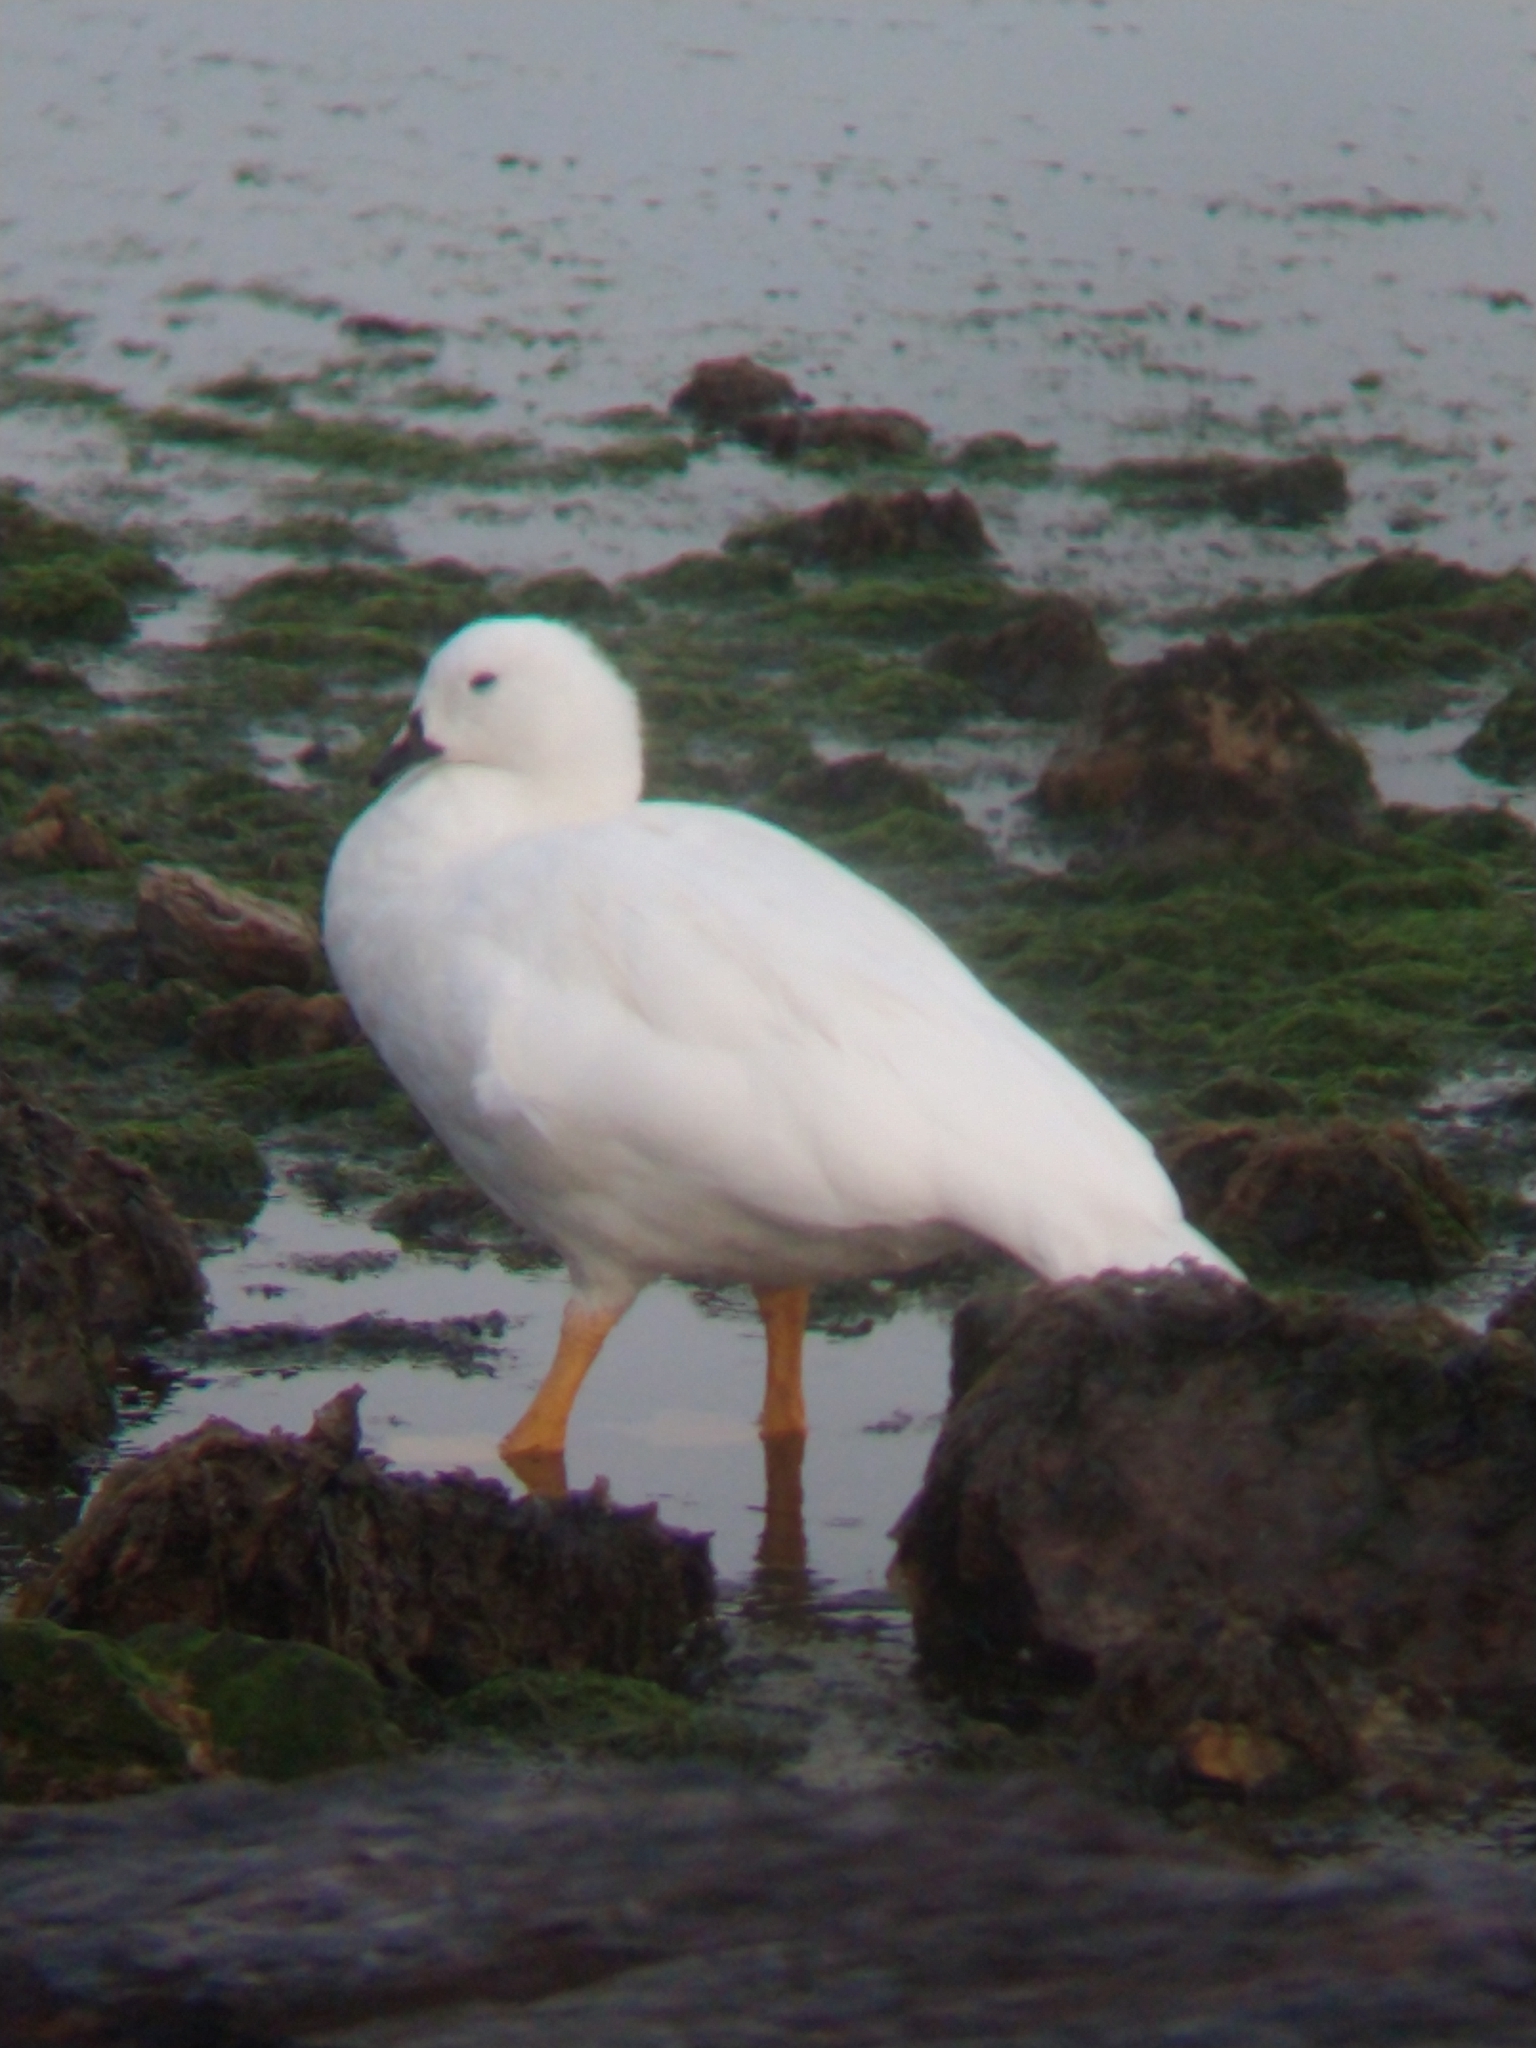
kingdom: Animalia
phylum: Chordata
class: Aves
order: Anseriformes
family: Anatidae
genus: Chloephaga
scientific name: Chloephaga hybrida
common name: Kelp goose
